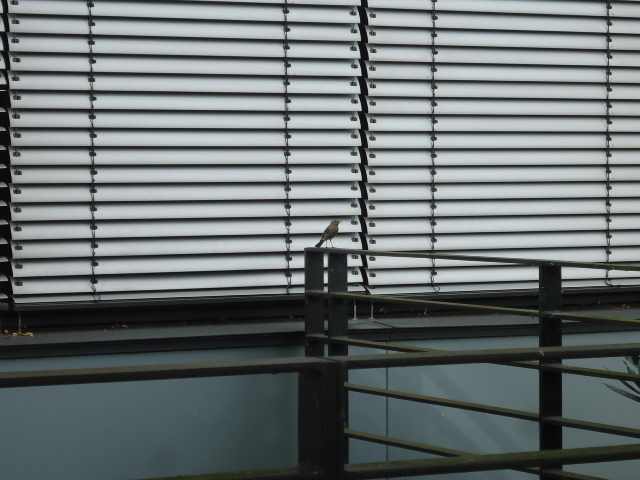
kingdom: Animalia
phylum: Chordata
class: Aves
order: Passeriformes
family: Muscicapidae
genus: Phoenicurus
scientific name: Phoenicurus ochruros
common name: Black redstart
